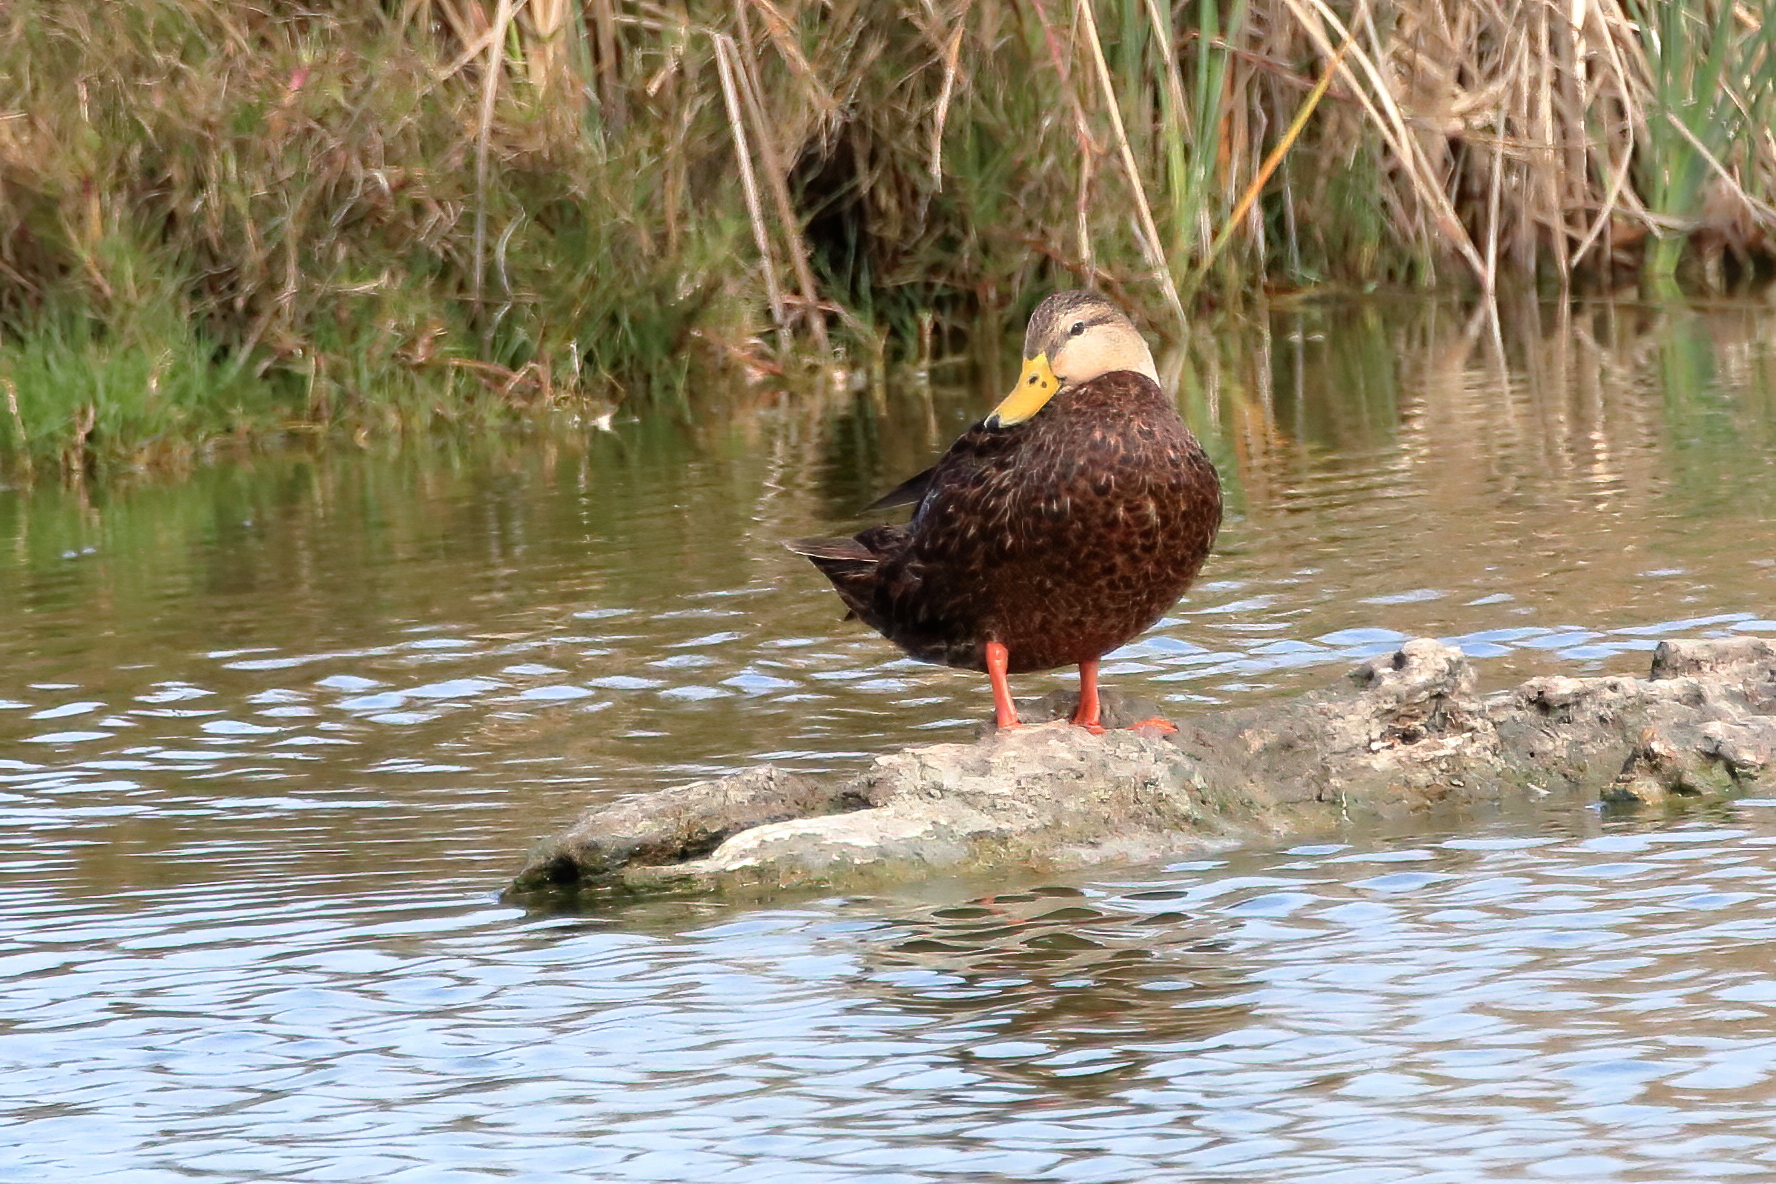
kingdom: Animalia
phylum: Chordata
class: Aves
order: Anseriformes
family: Anatidae
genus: Anas
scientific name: Anas fulvigula
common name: Mottled duck
